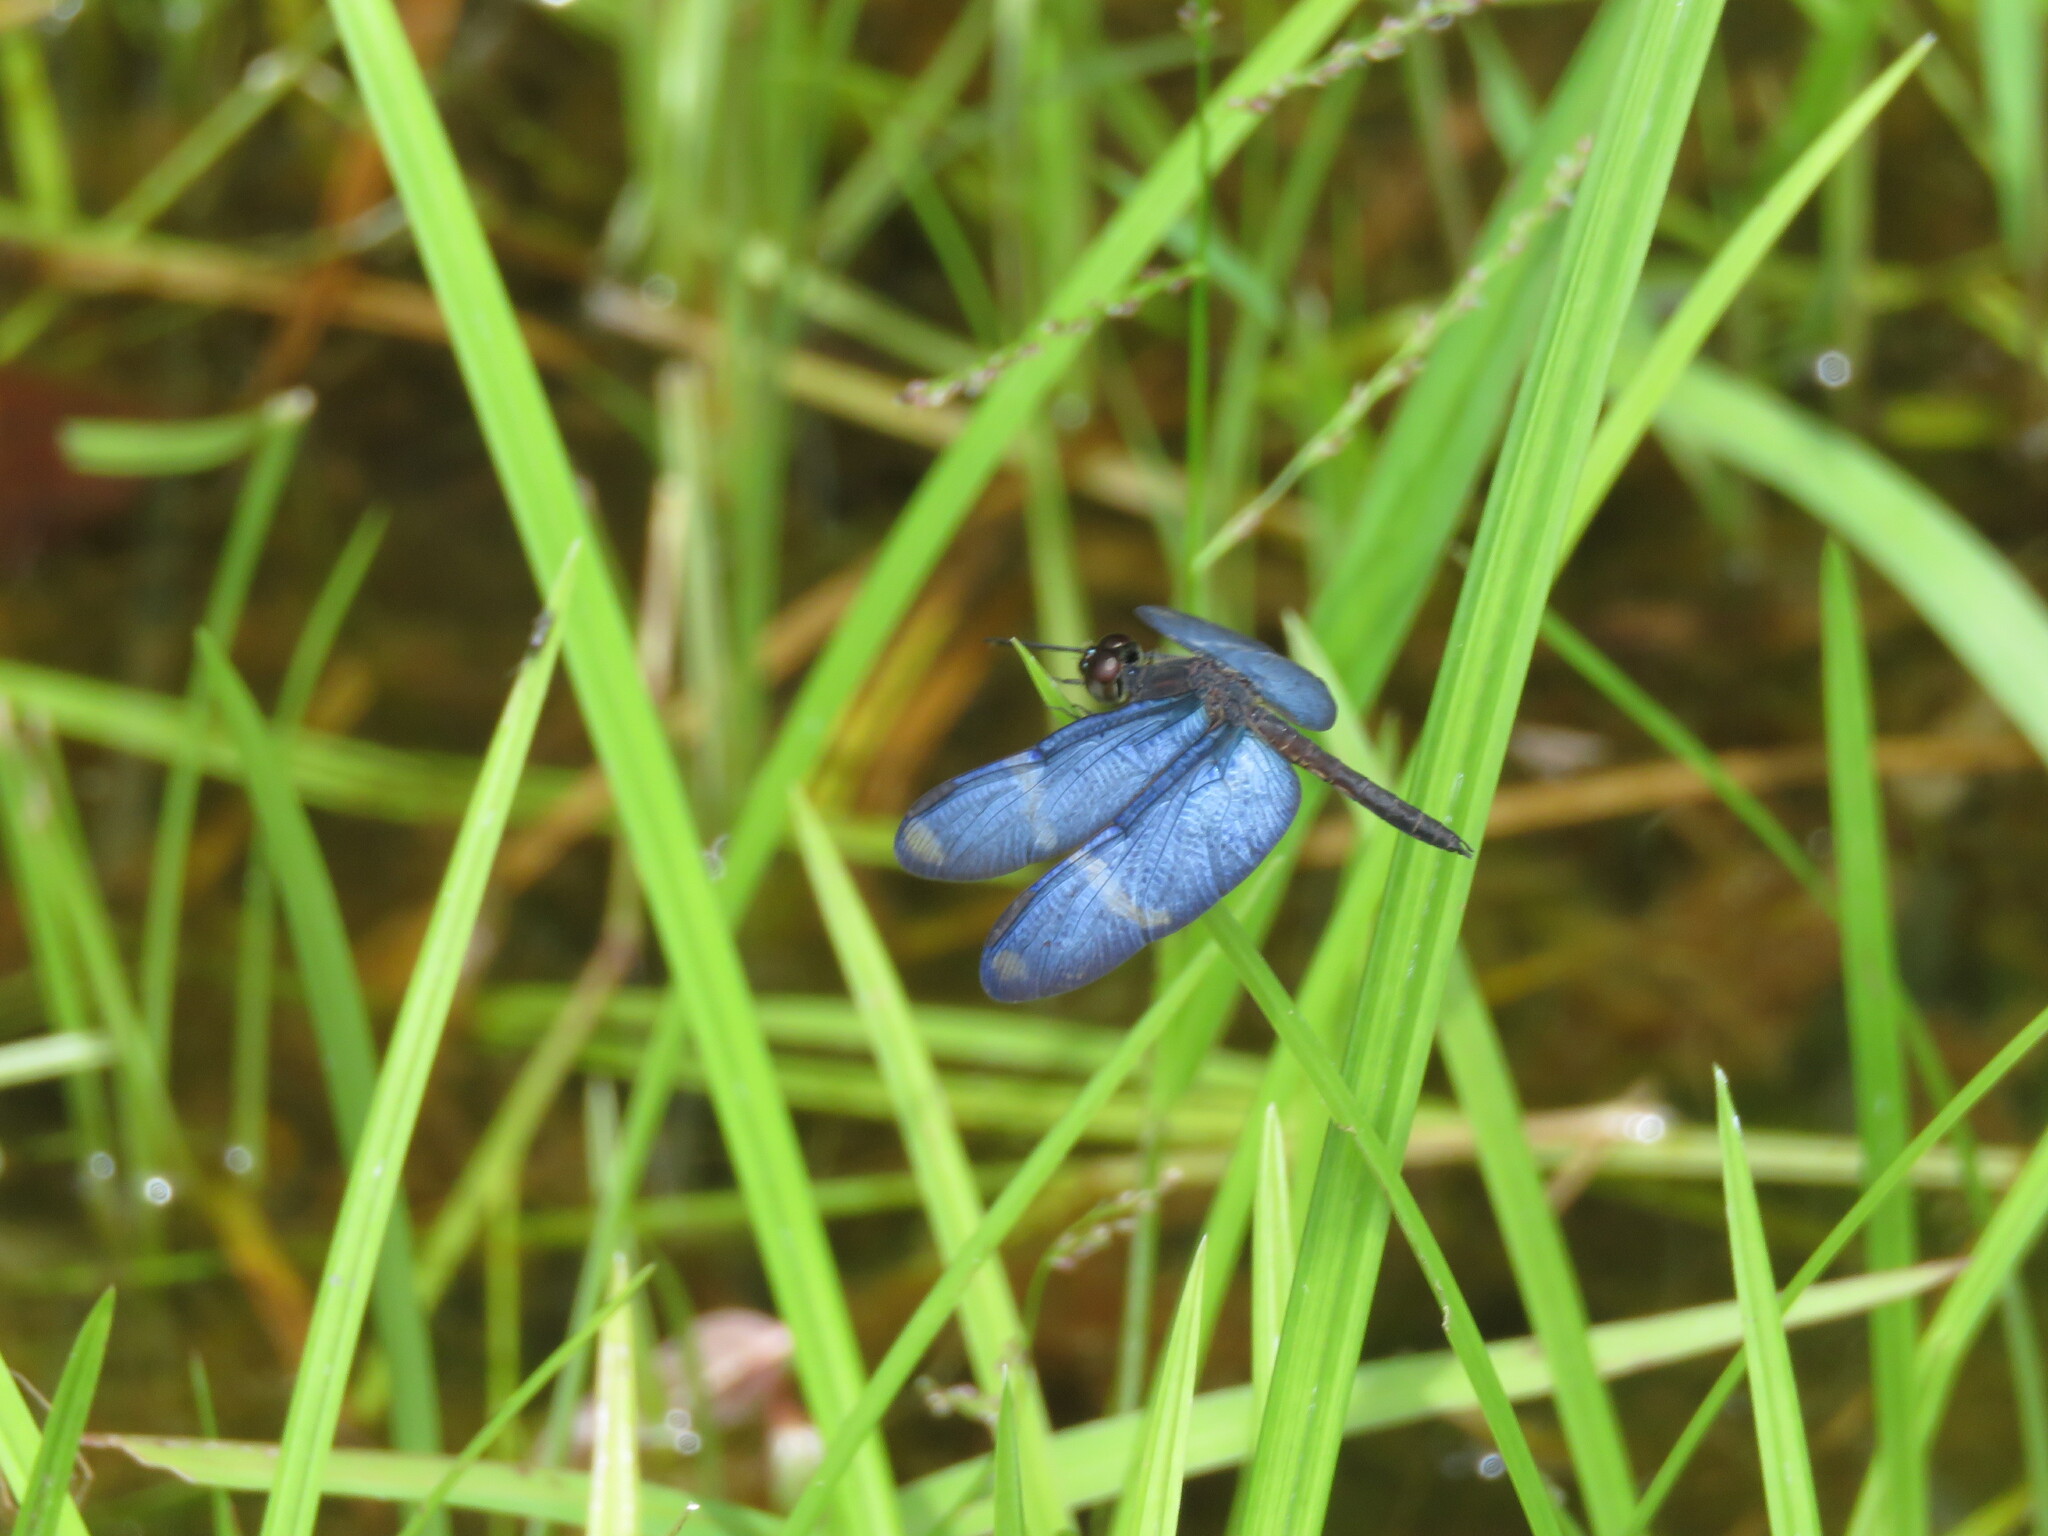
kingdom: Animalia
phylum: Arthropoda
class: Insecta
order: Odonata
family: Libellulidae
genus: Zenithoptera
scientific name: Zenithoptera lanei
